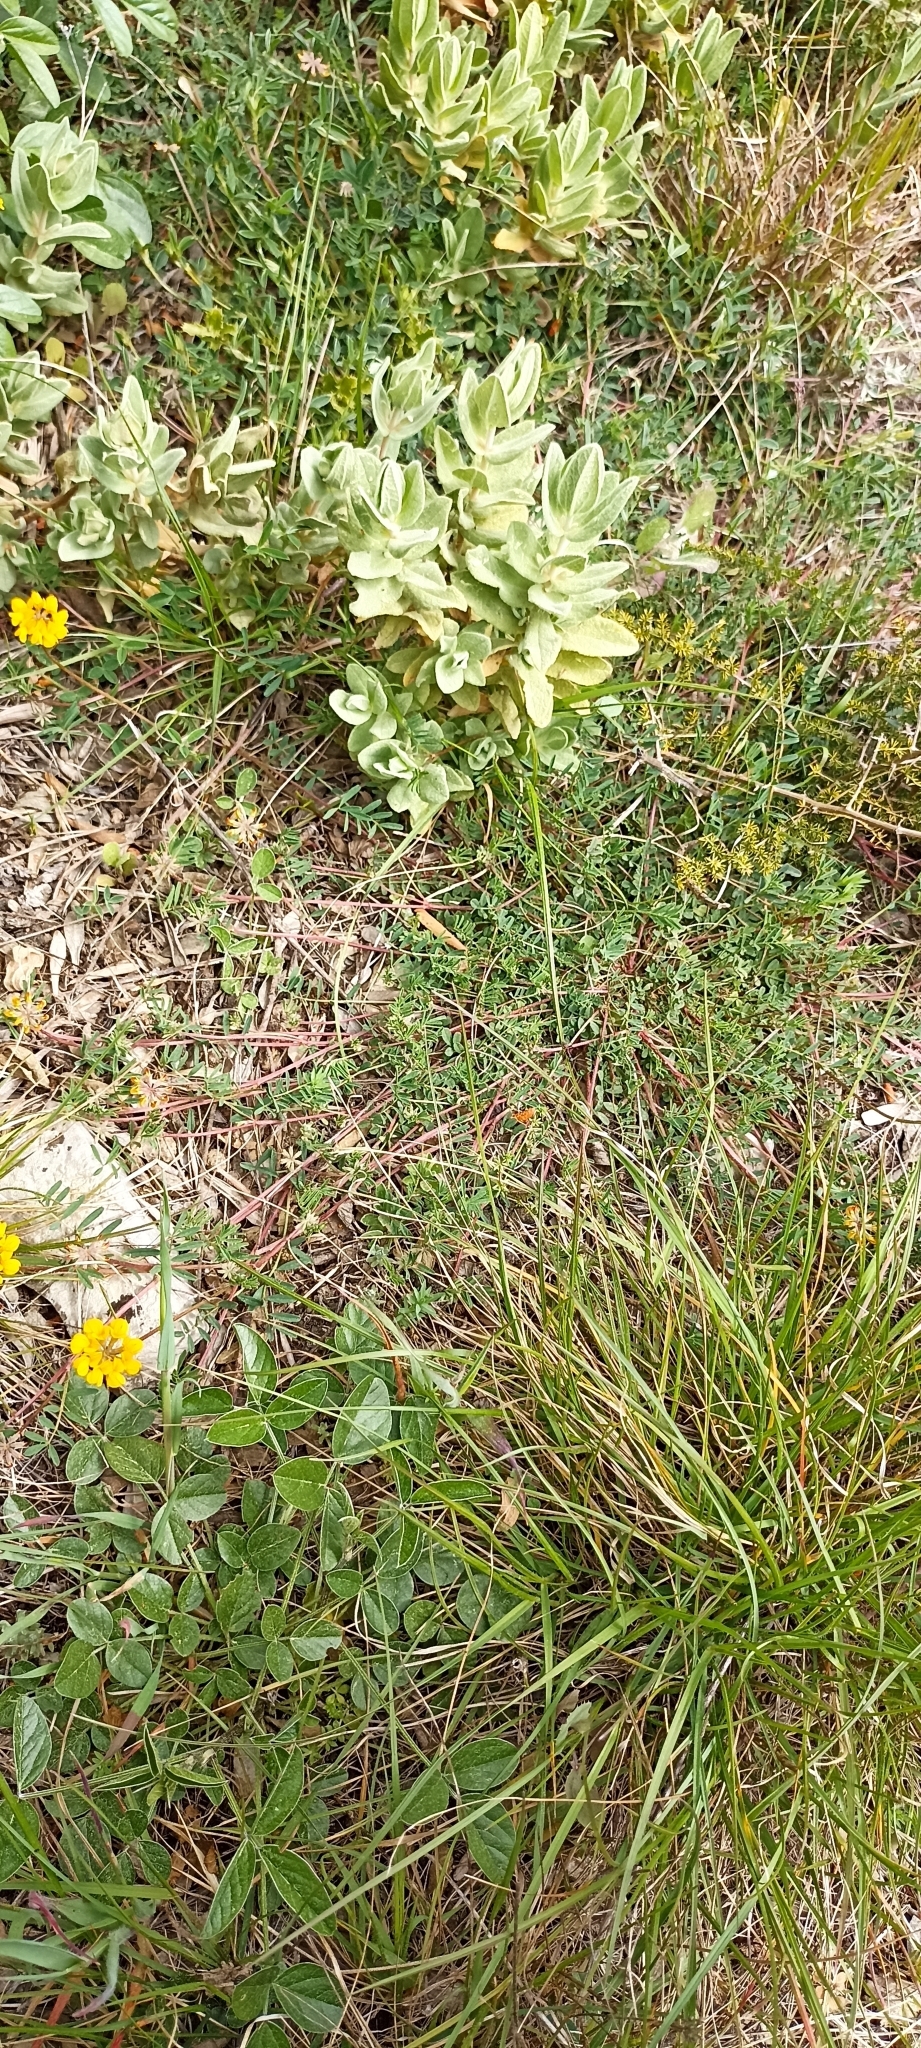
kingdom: Plantae
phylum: Tracheophyta
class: Magnoliopsida
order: Fabales
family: Fabaceae
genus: Hippocrepis
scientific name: Hippocrepis comosa
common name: Horseshoe vetch
